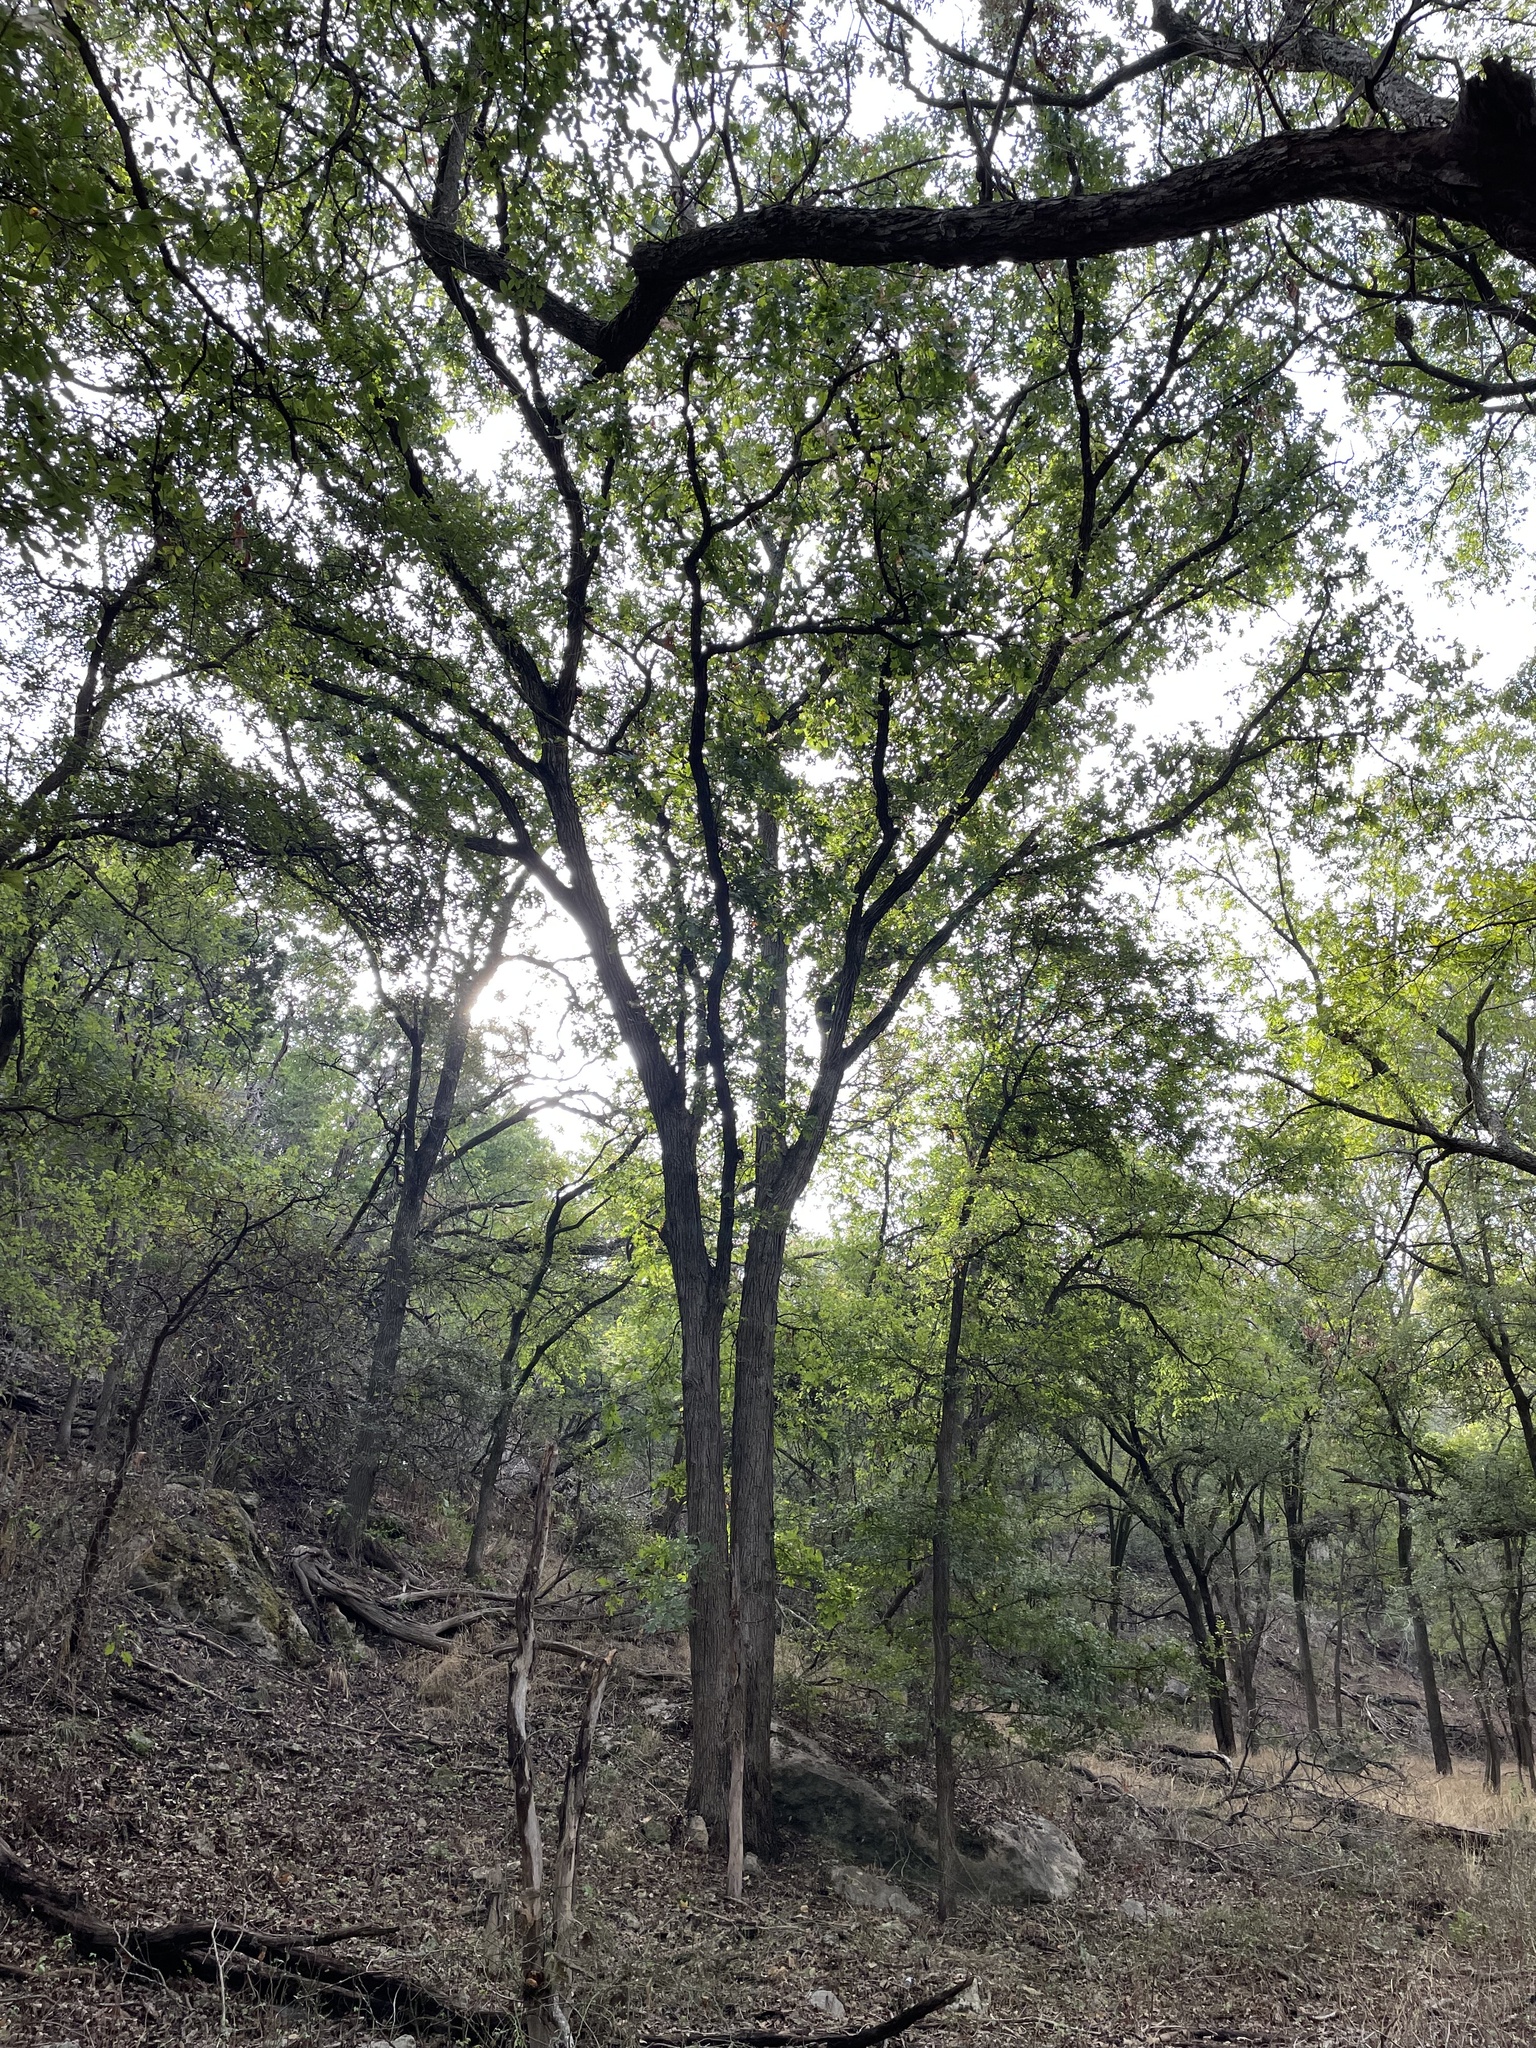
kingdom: Plantae
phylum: Tracheophyta
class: Magnoliopsida
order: Fagales
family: Fagaceae
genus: Quercus
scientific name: Quercus macrocarpa
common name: Bur oak
